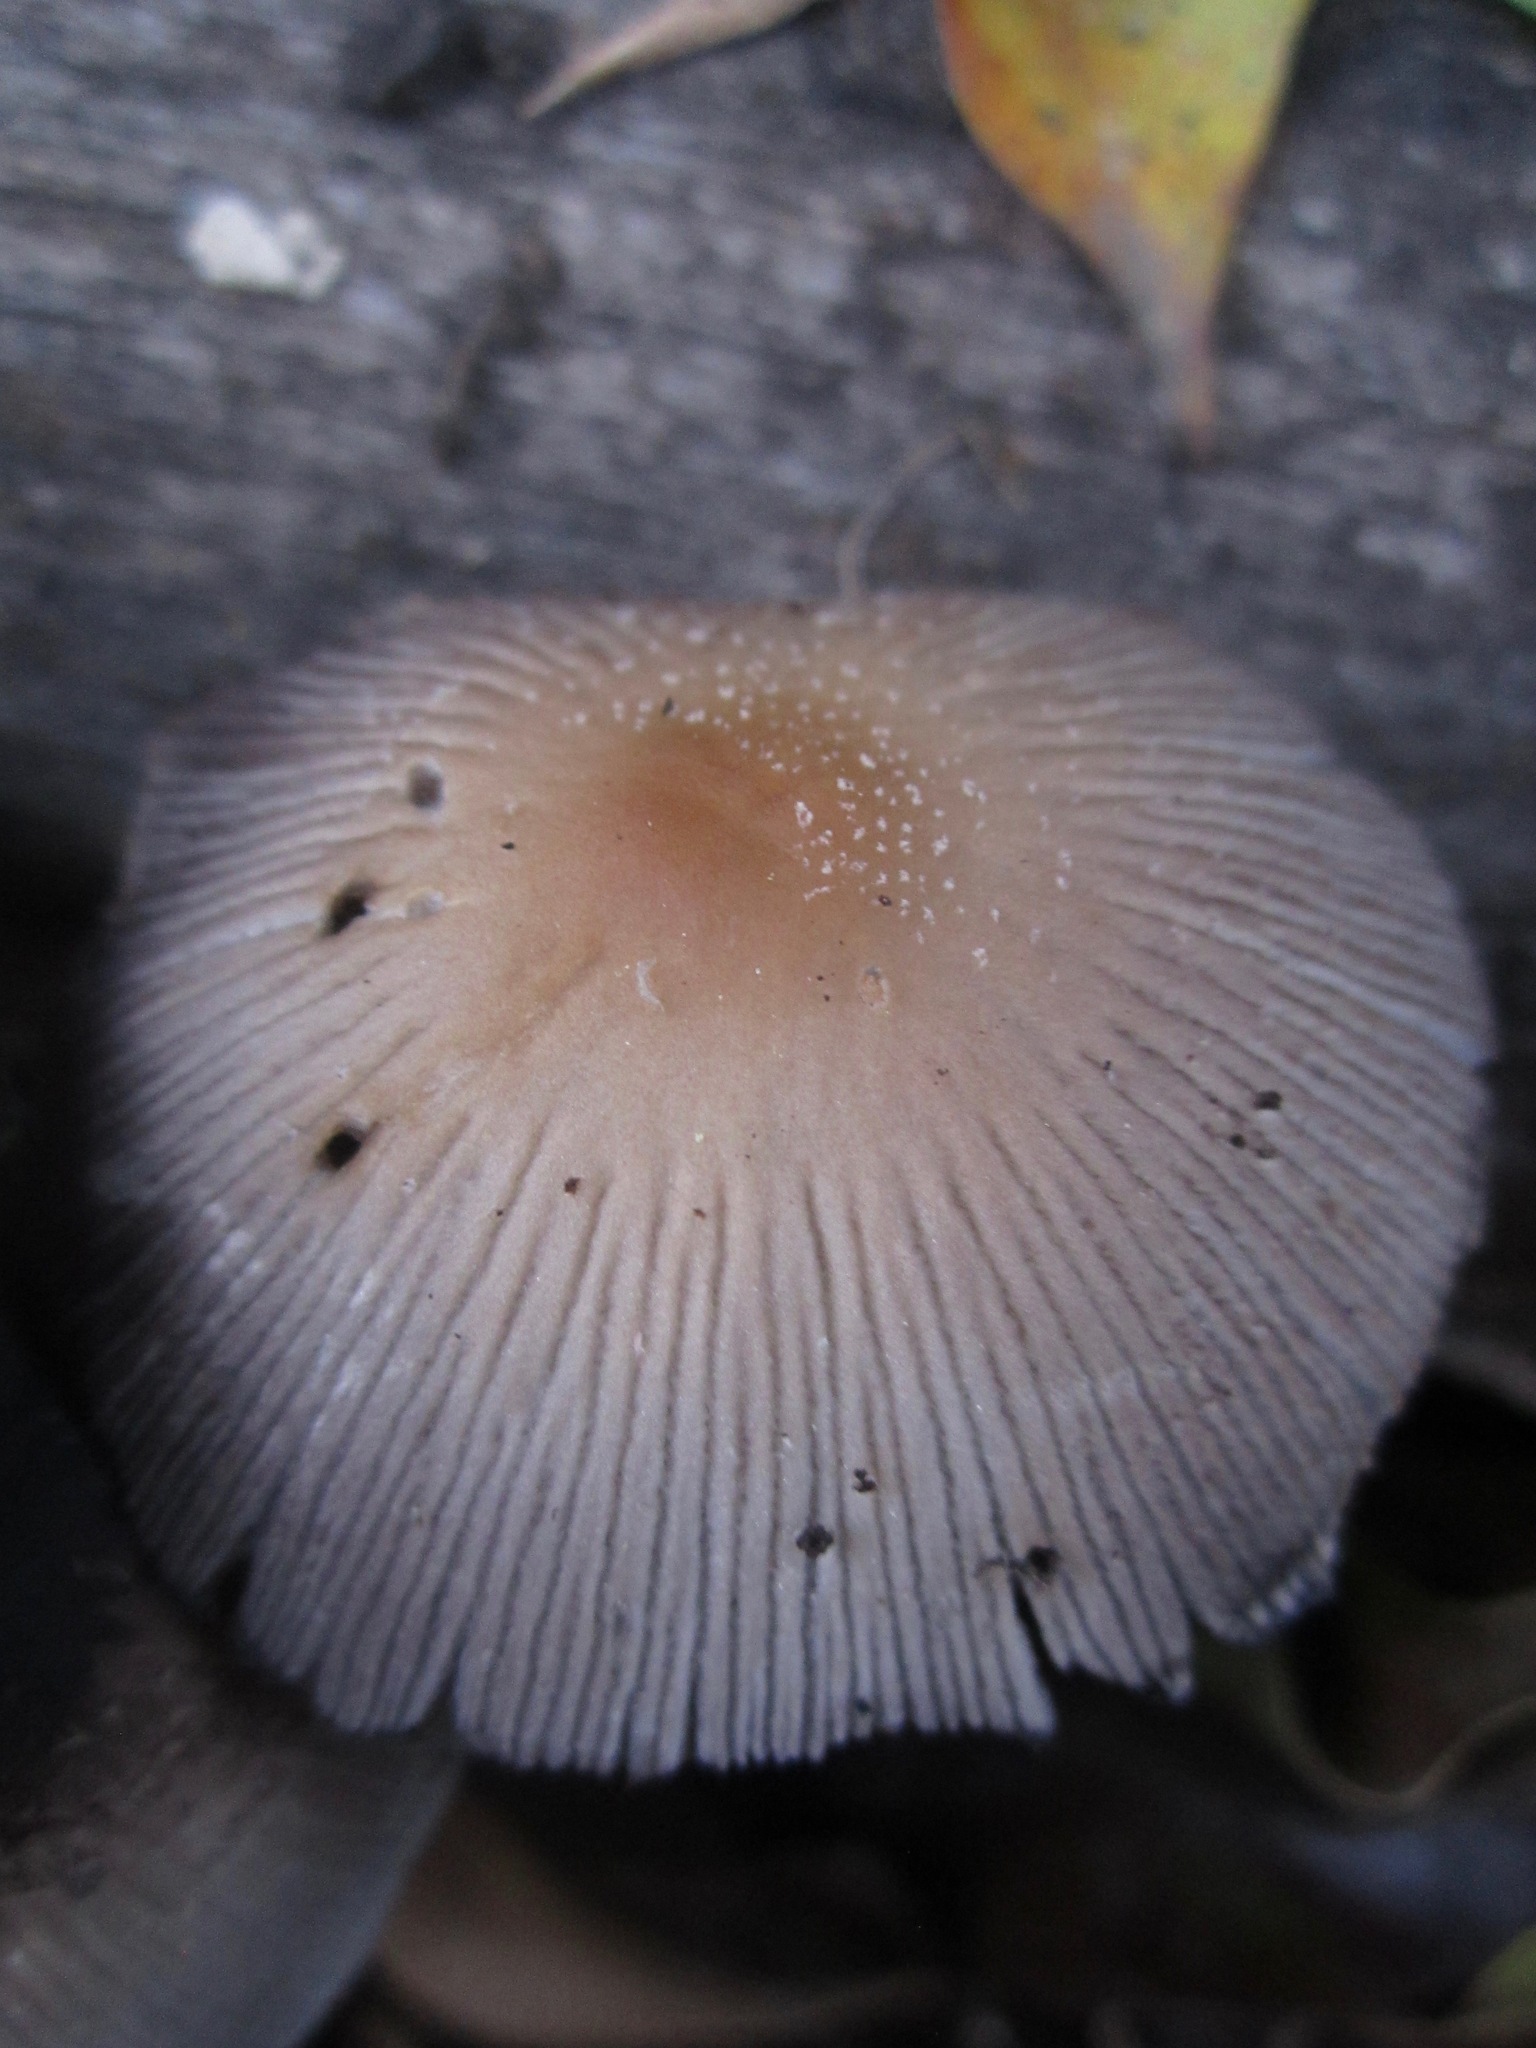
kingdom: Fungi
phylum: Basidiomycota
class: Agaricomycetes
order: Agaricales
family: Psathyrellaceae
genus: Coprinellus
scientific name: Coprinellus micaceus
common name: Glistening ink-cap
